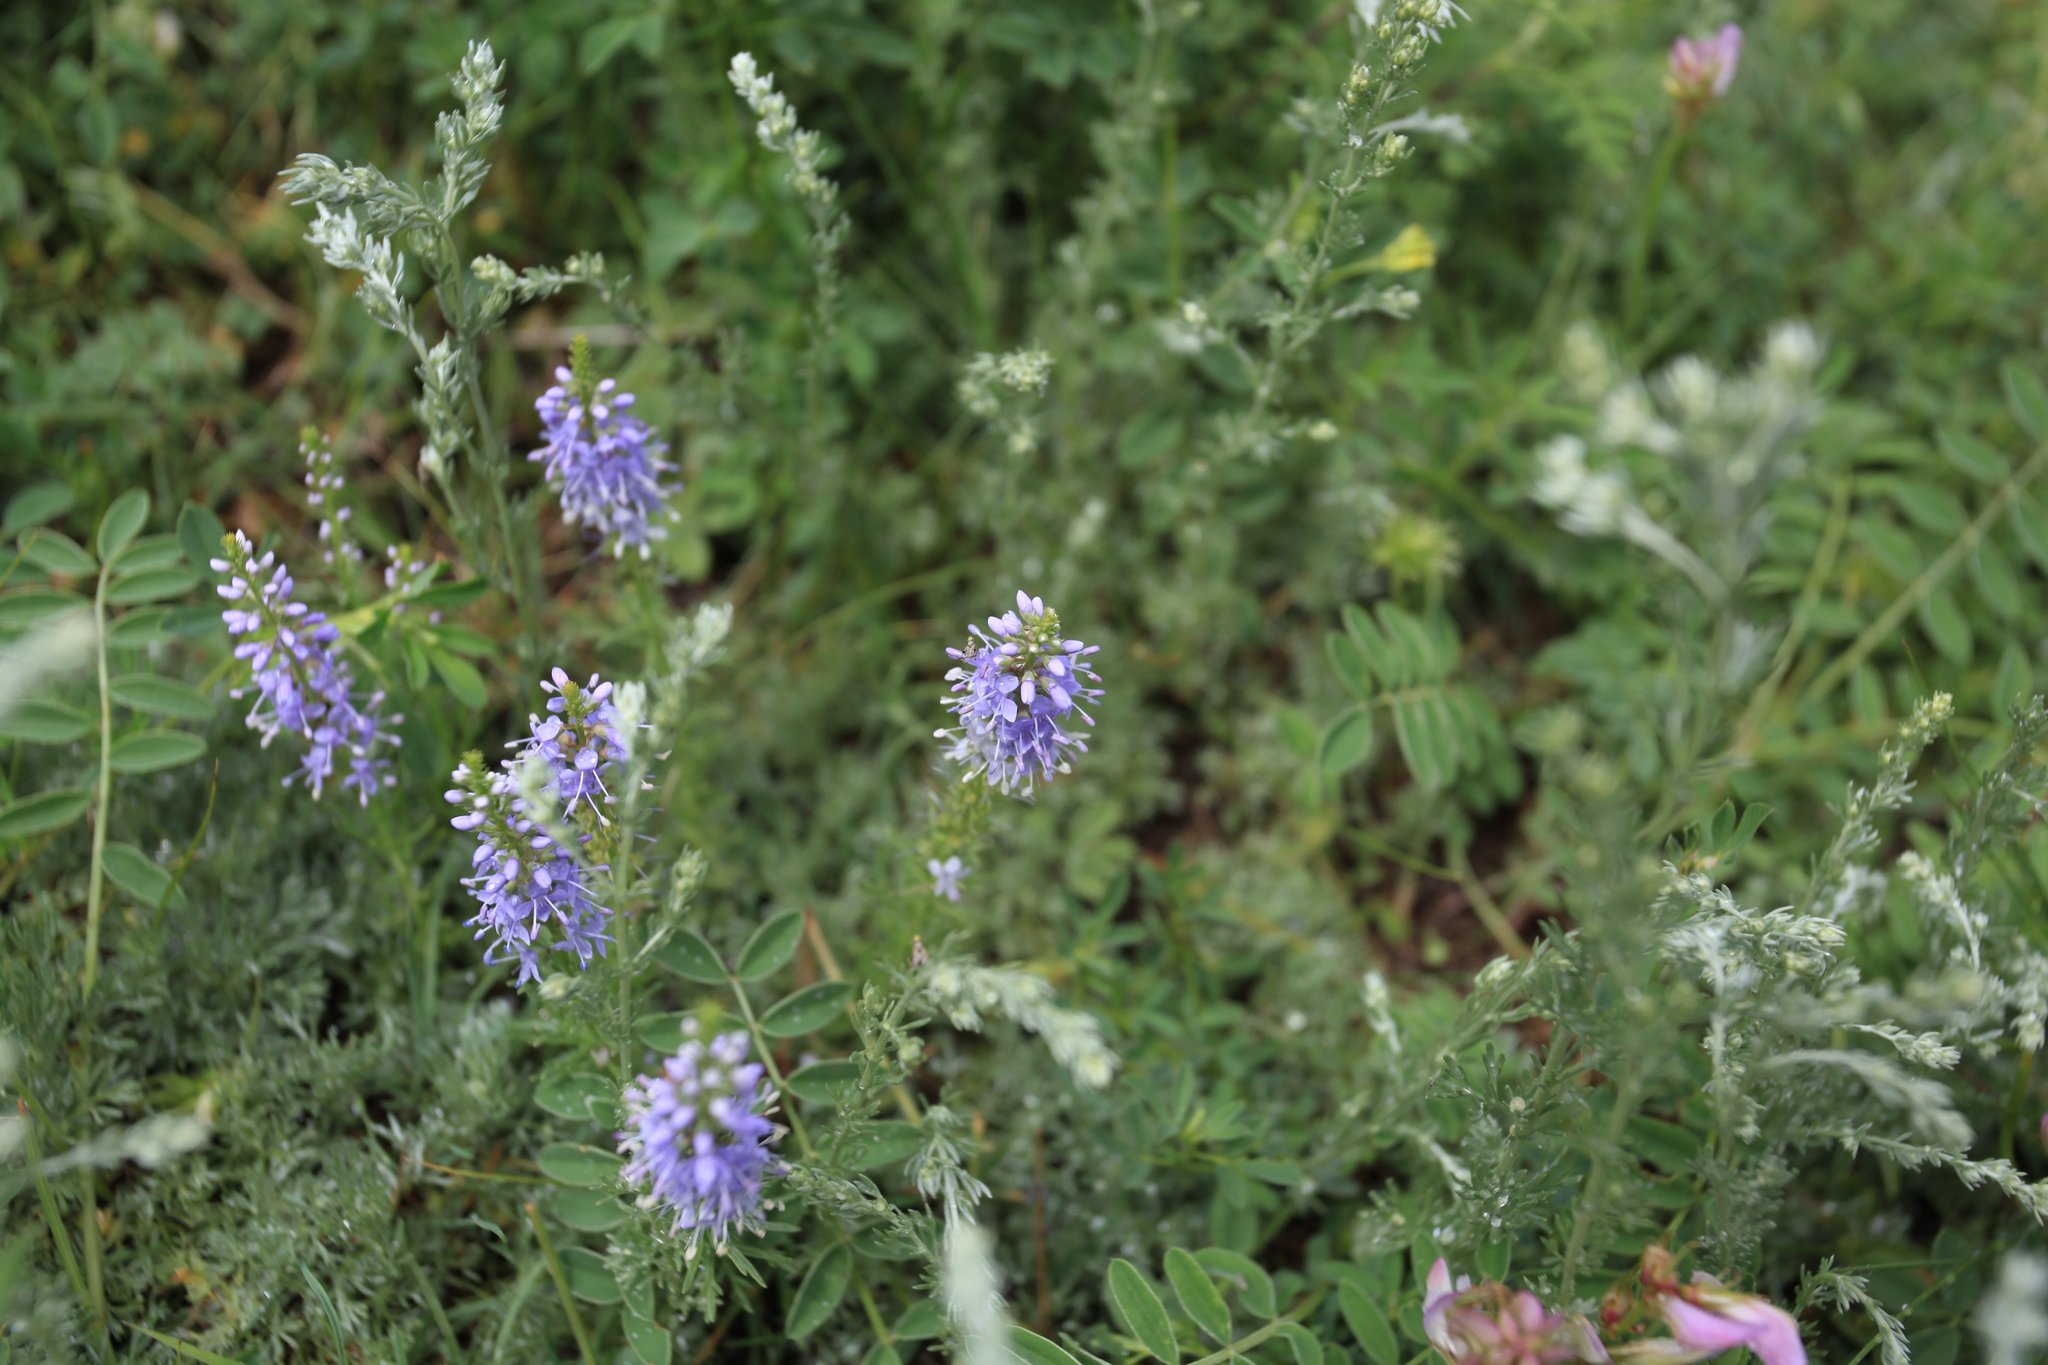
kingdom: Plantae
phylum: Tracheophyta
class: Magnoliopsida
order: Lamiales
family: Plantaginaceae
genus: Veronica
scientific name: Veronica pinnata
